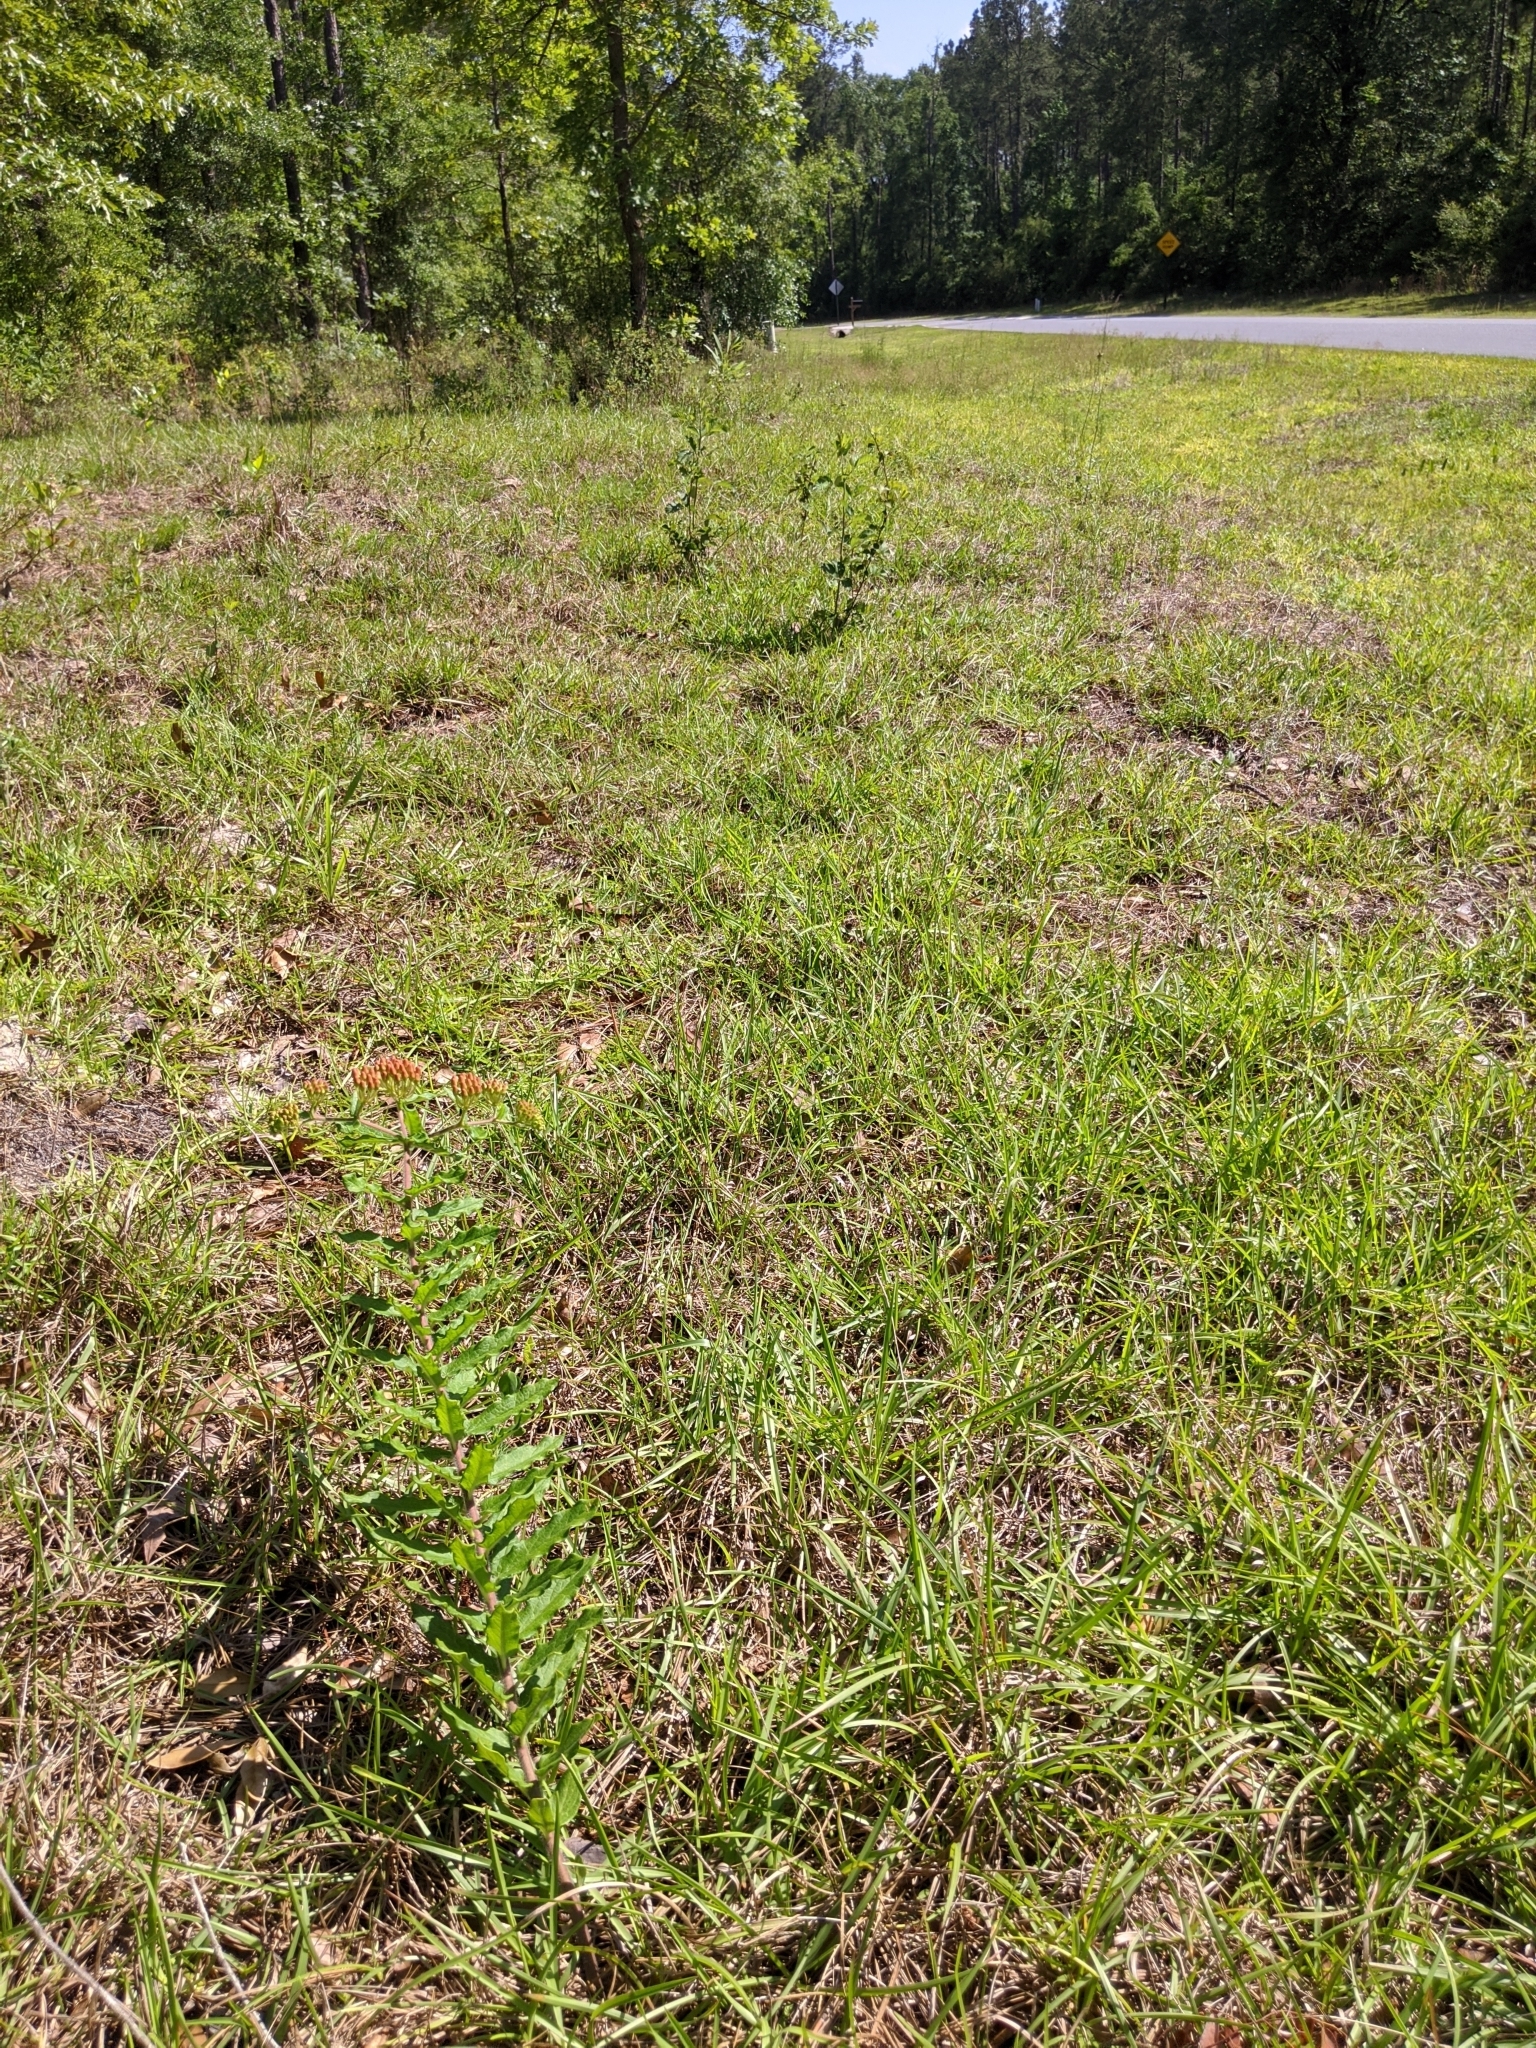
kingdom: Plantae
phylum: Tracheophyta
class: Magnoliopsida
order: Gentianales
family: Apocynaceae
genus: Asclepias
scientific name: Asclepias tuberosa
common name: Butterfly milkweed
